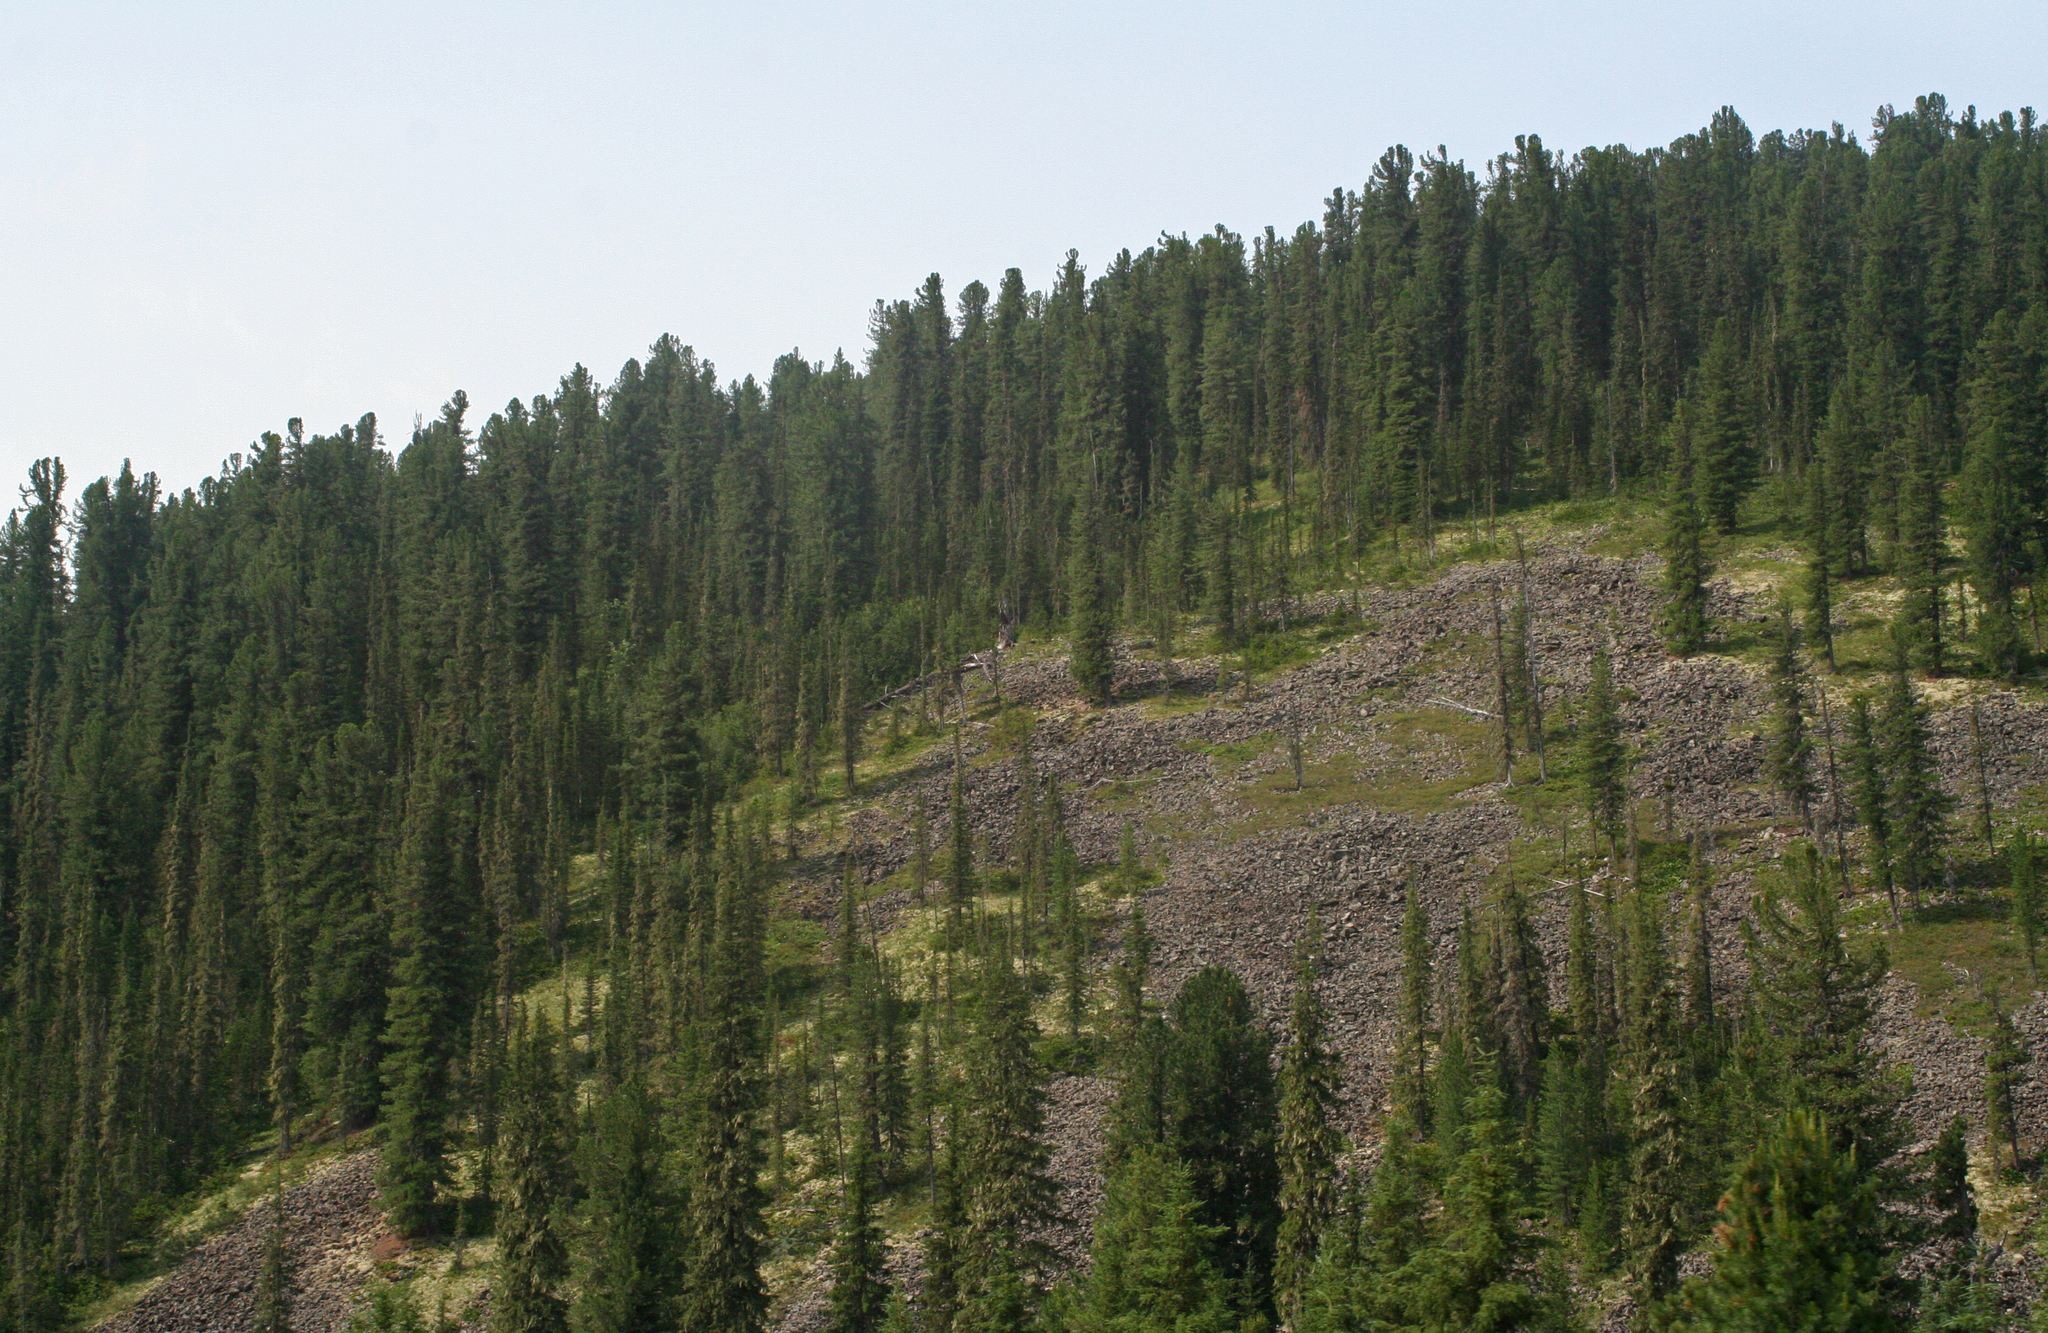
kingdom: Plantae
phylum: Tracheophyta
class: Pinopsida
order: Pinales
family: Pinaceae
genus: Pinus
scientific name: Pinus sibirica
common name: Siberian pine
